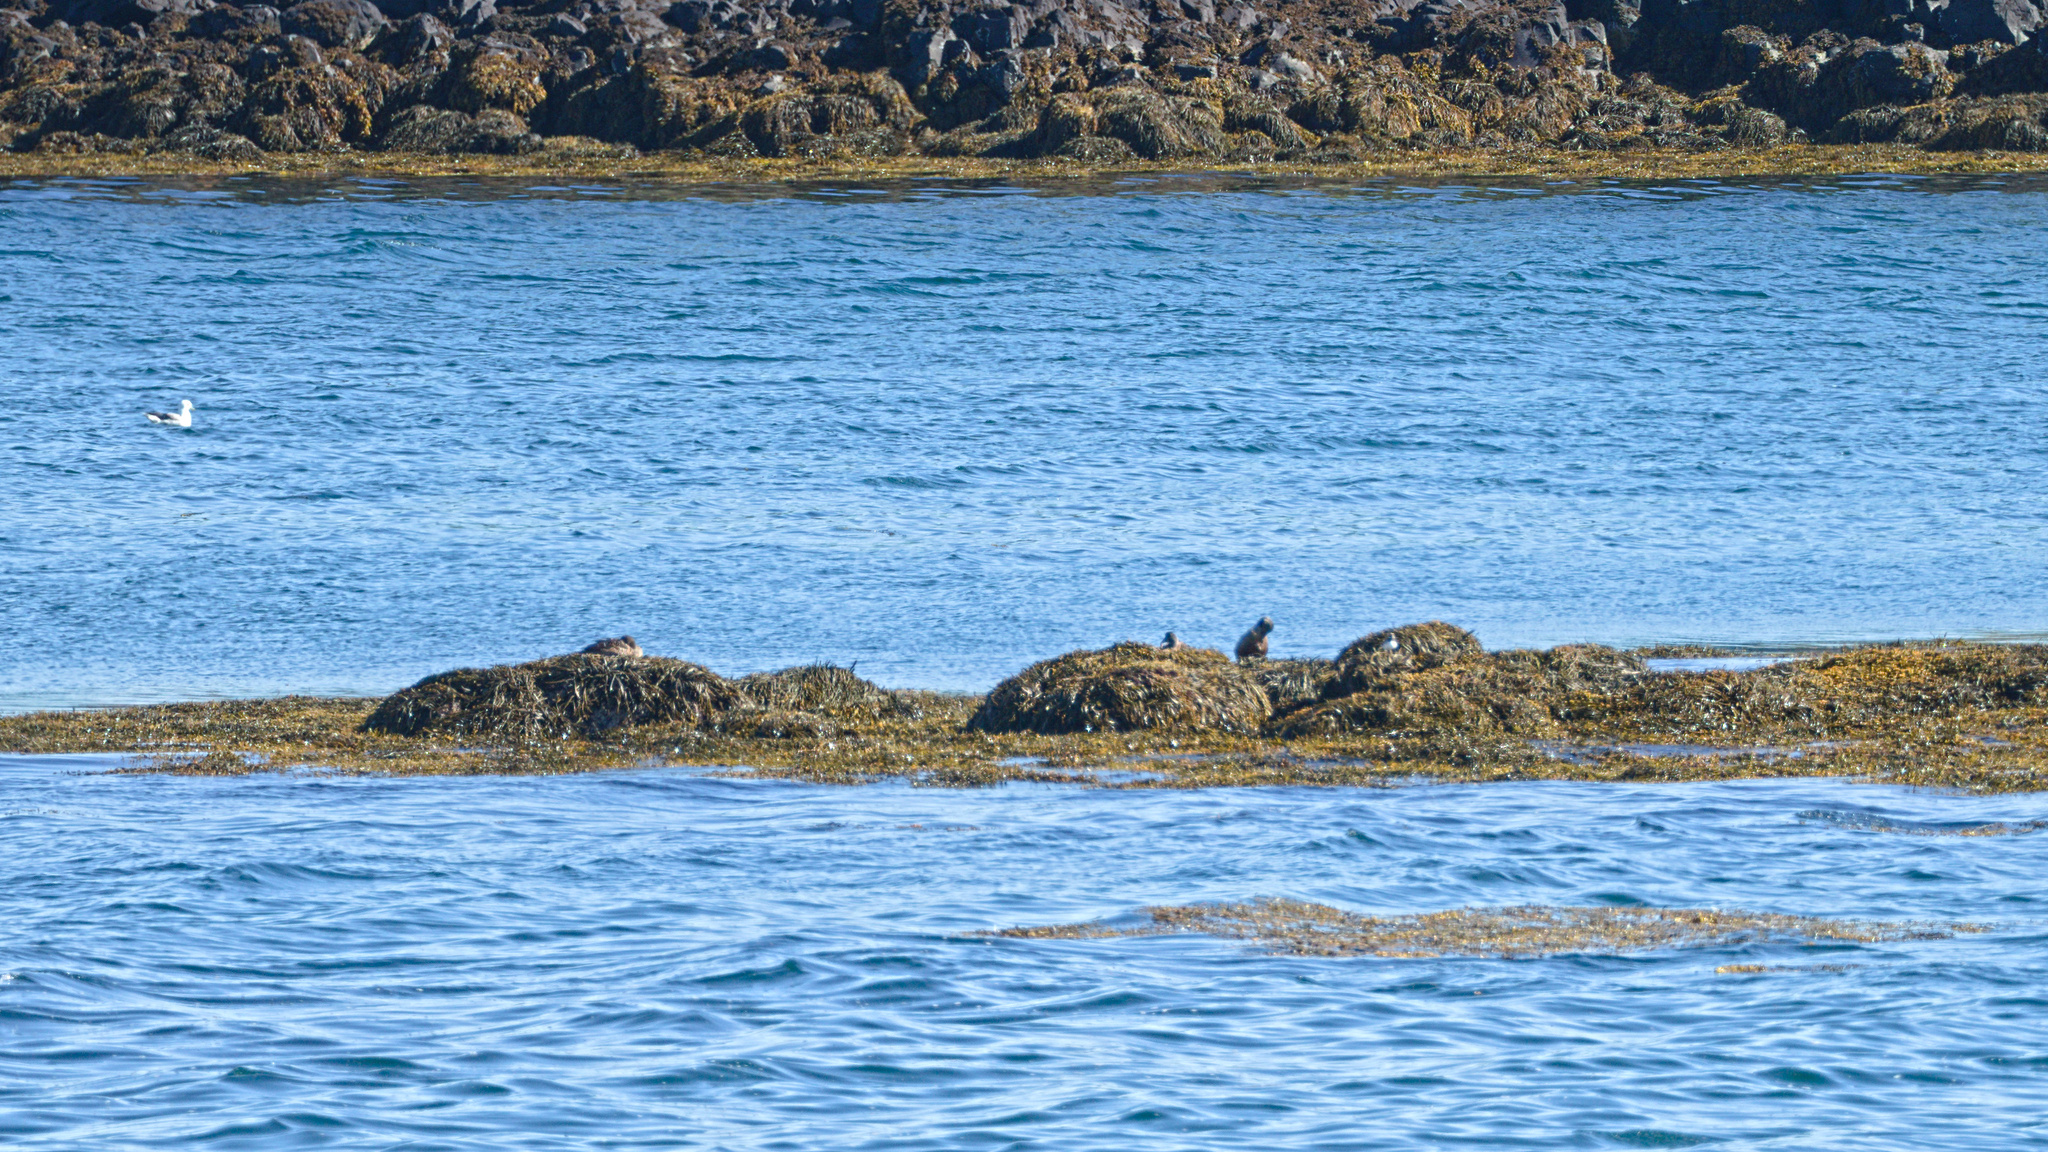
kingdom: Animalia
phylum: Chordata
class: Aves
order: Anseriformes
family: Anatidae
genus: Somateria
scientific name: Somateria mollissima
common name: Common eider
